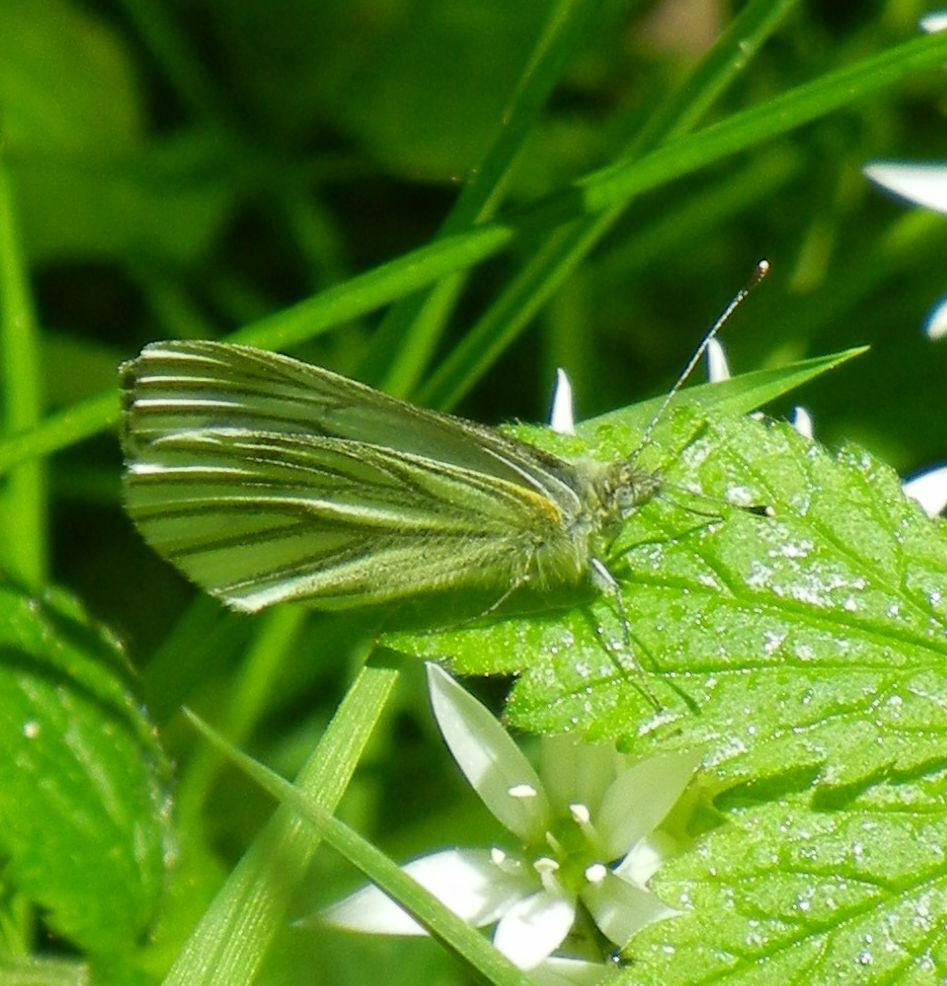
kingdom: Animalia
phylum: Arthropoda
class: Insecta
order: Lepidoptera
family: Pieridae
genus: Pieris
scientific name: Pieris napi
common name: Green-veined white
